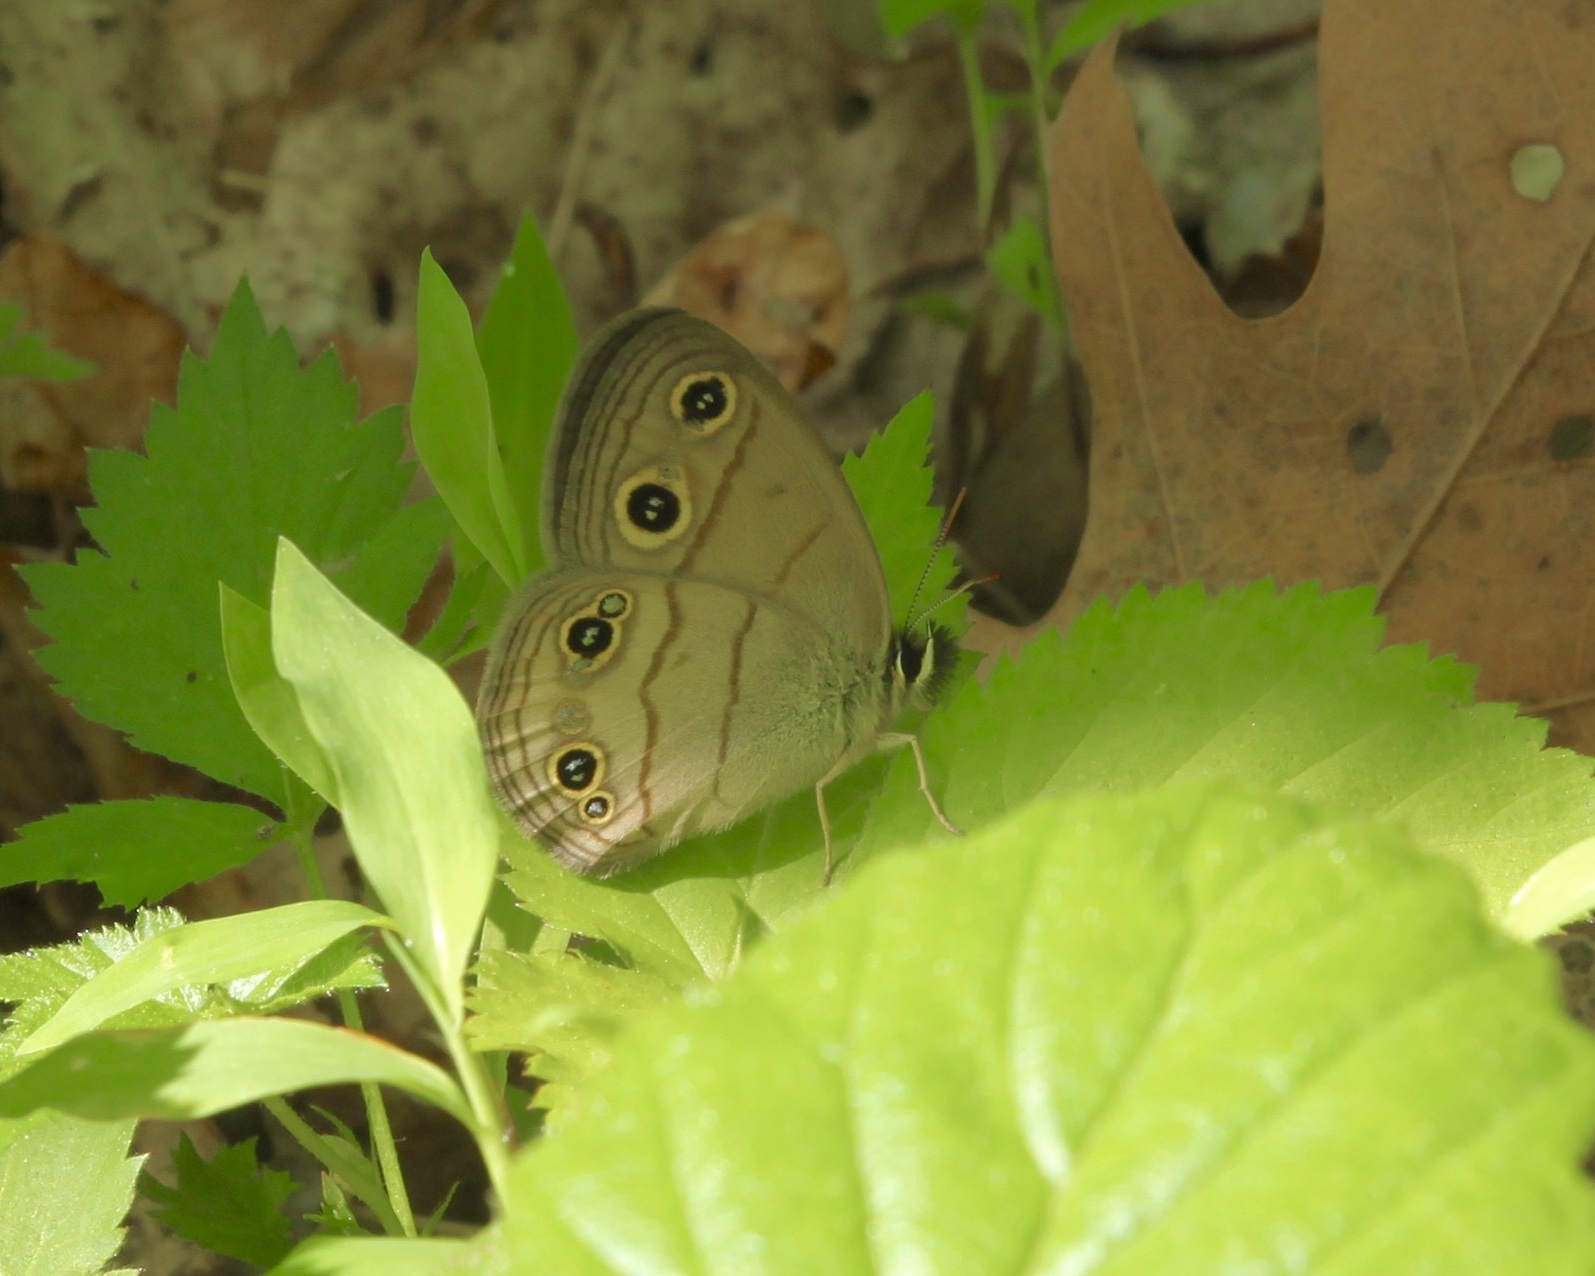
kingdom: Animalia
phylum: Arthropoda
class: Insecta
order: Lepidoptera
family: Nymphalidae
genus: Euptychia
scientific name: Euptychia cymela
